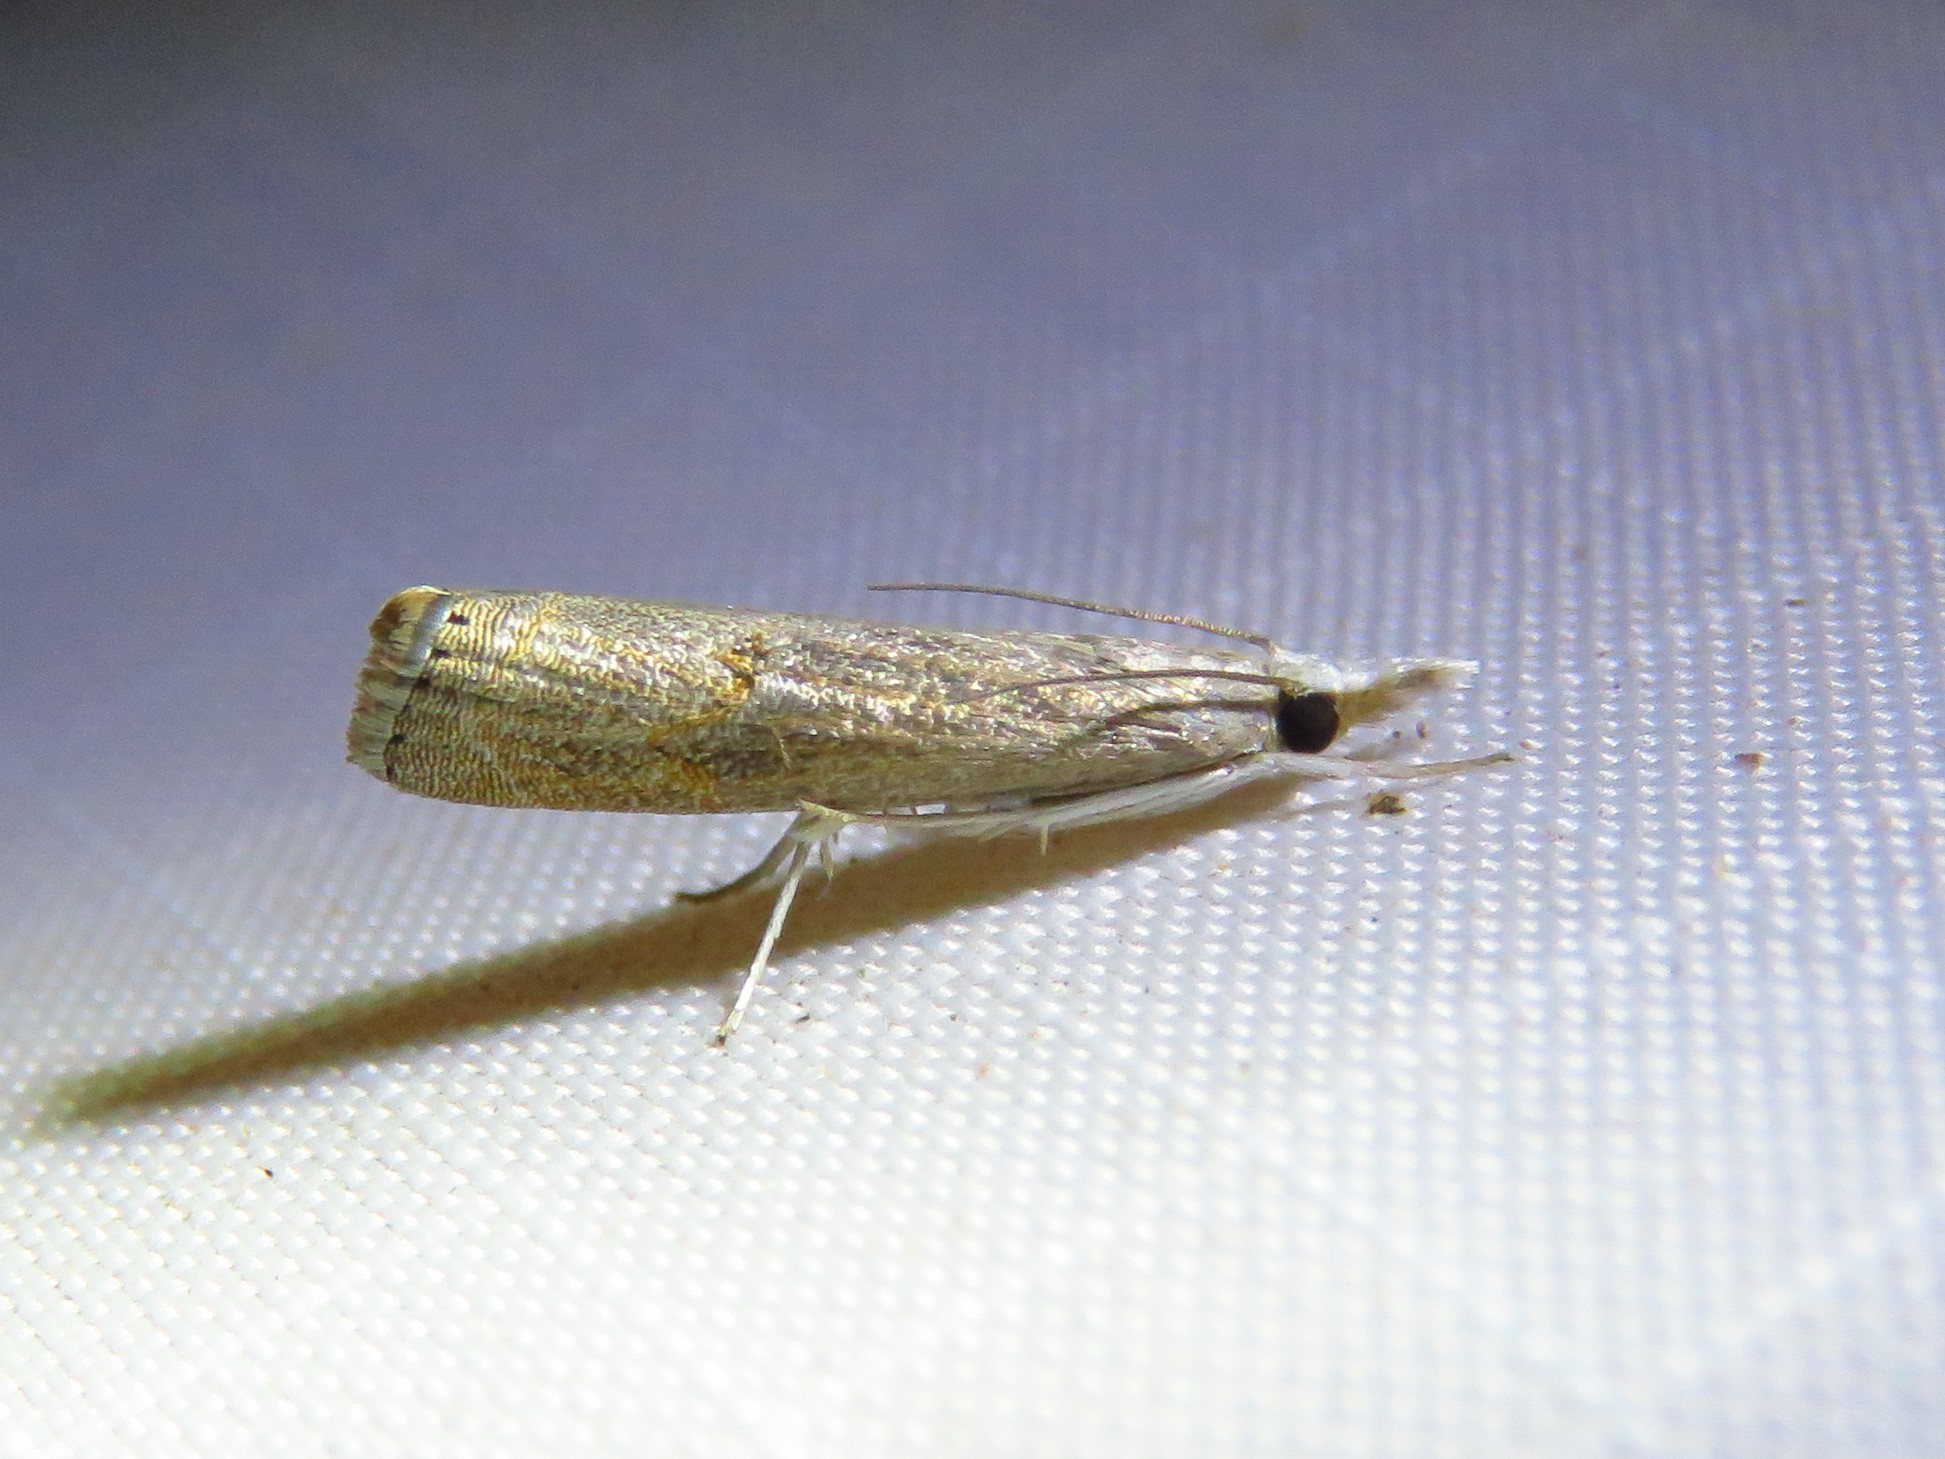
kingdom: Animalia
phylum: Arthropoda
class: Insecta
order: Lepidoptera
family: Crambidae
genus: Parapediasia
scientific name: Parapediasia teterellus
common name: Bluegrass webworm moth
